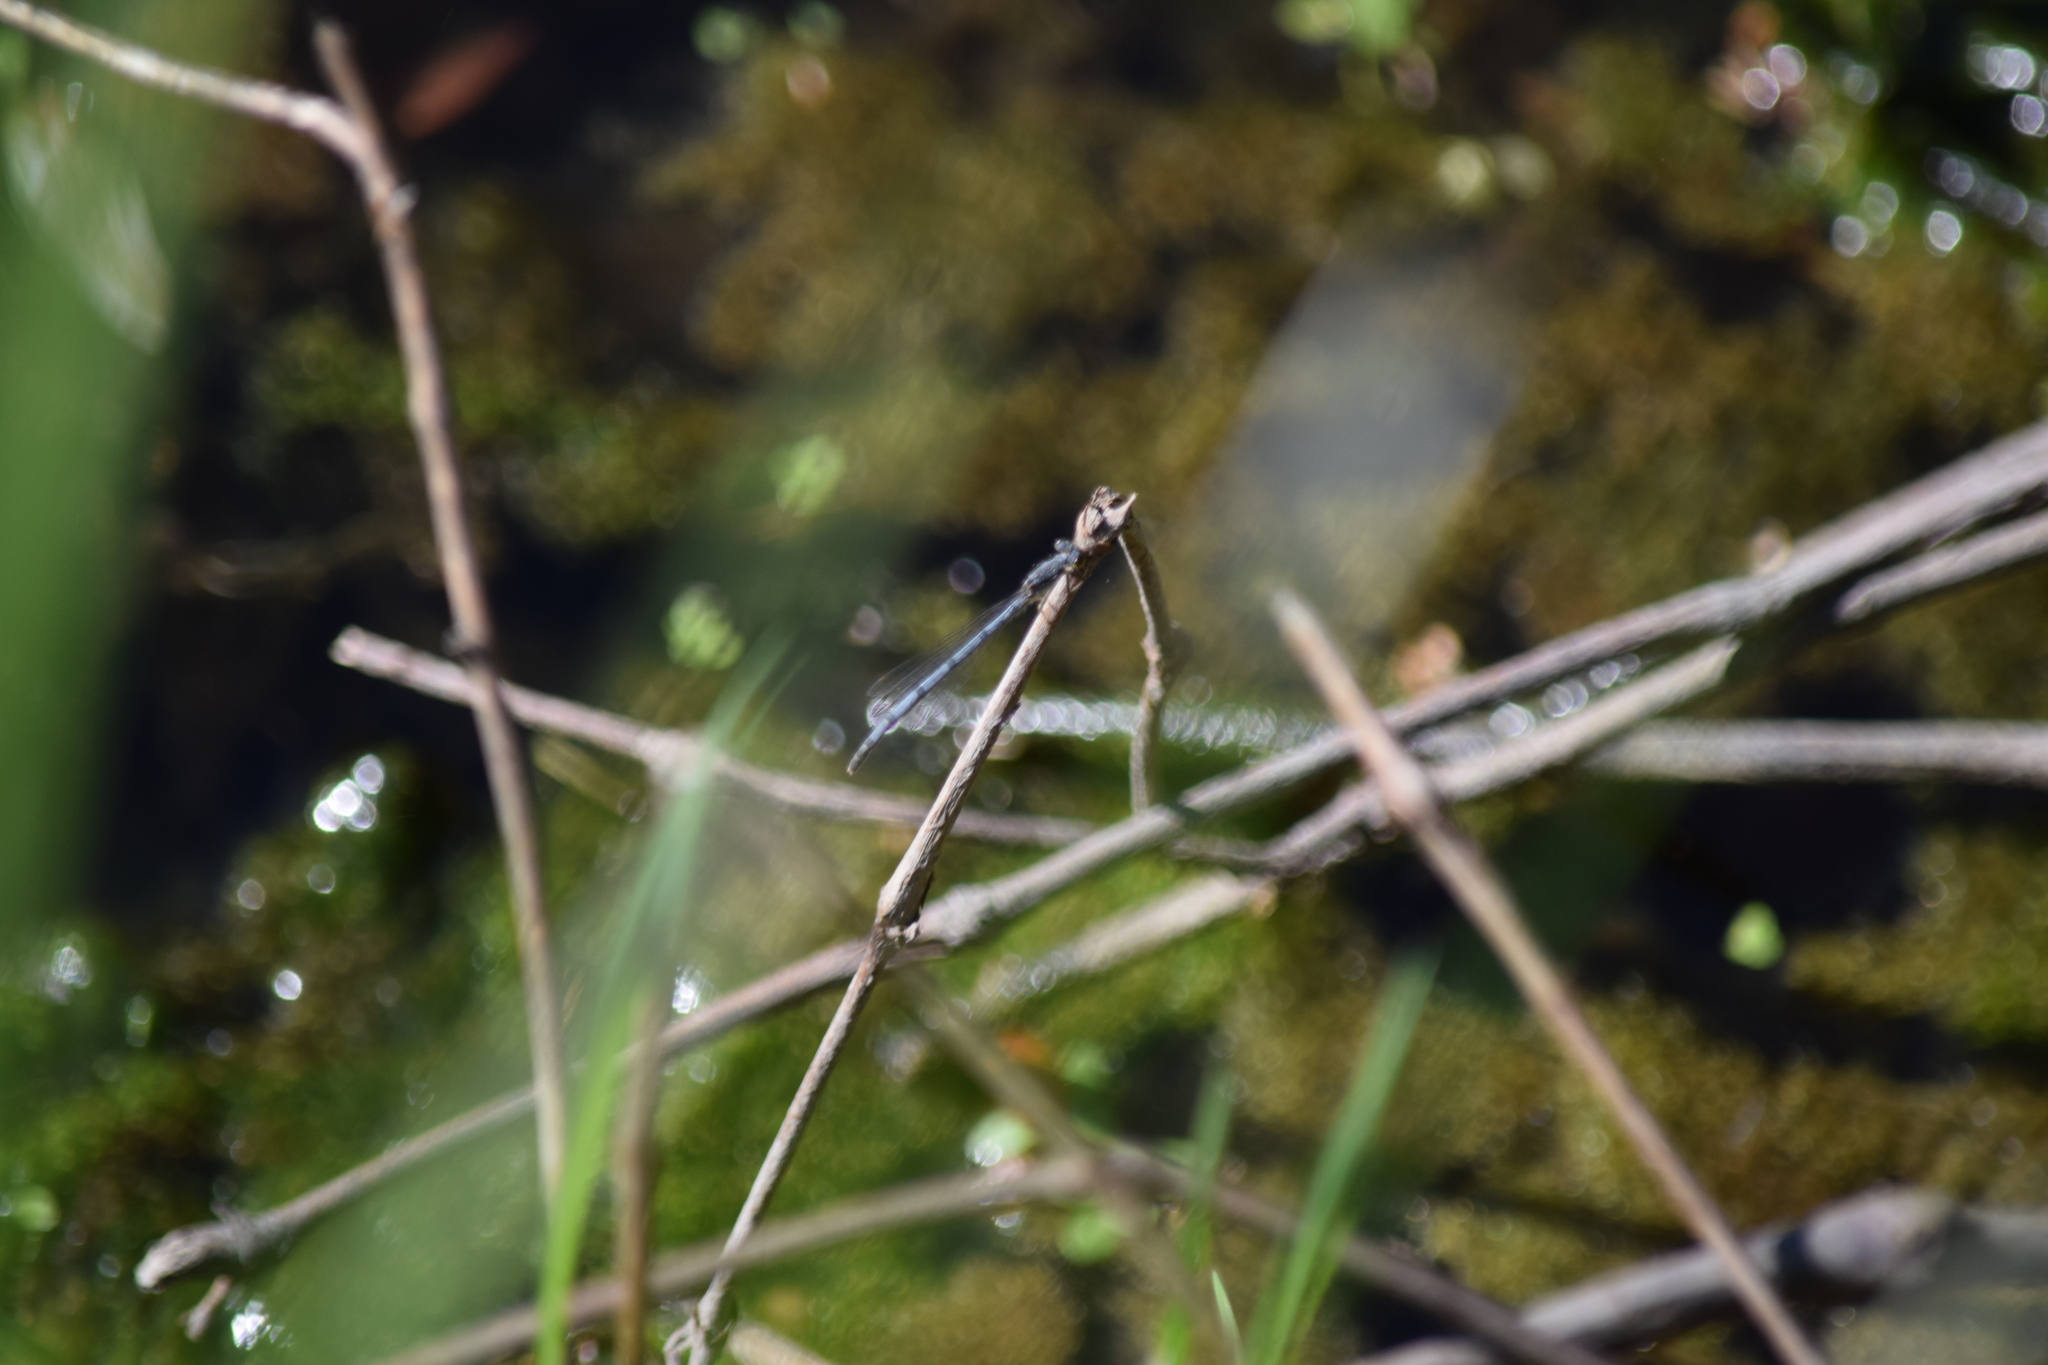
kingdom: Animalia
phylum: Arthropoda
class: Insecta
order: Odonata
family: Coenagrionidae
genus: Ischnura
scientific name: Ischnura posita
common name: Fragile forktail
